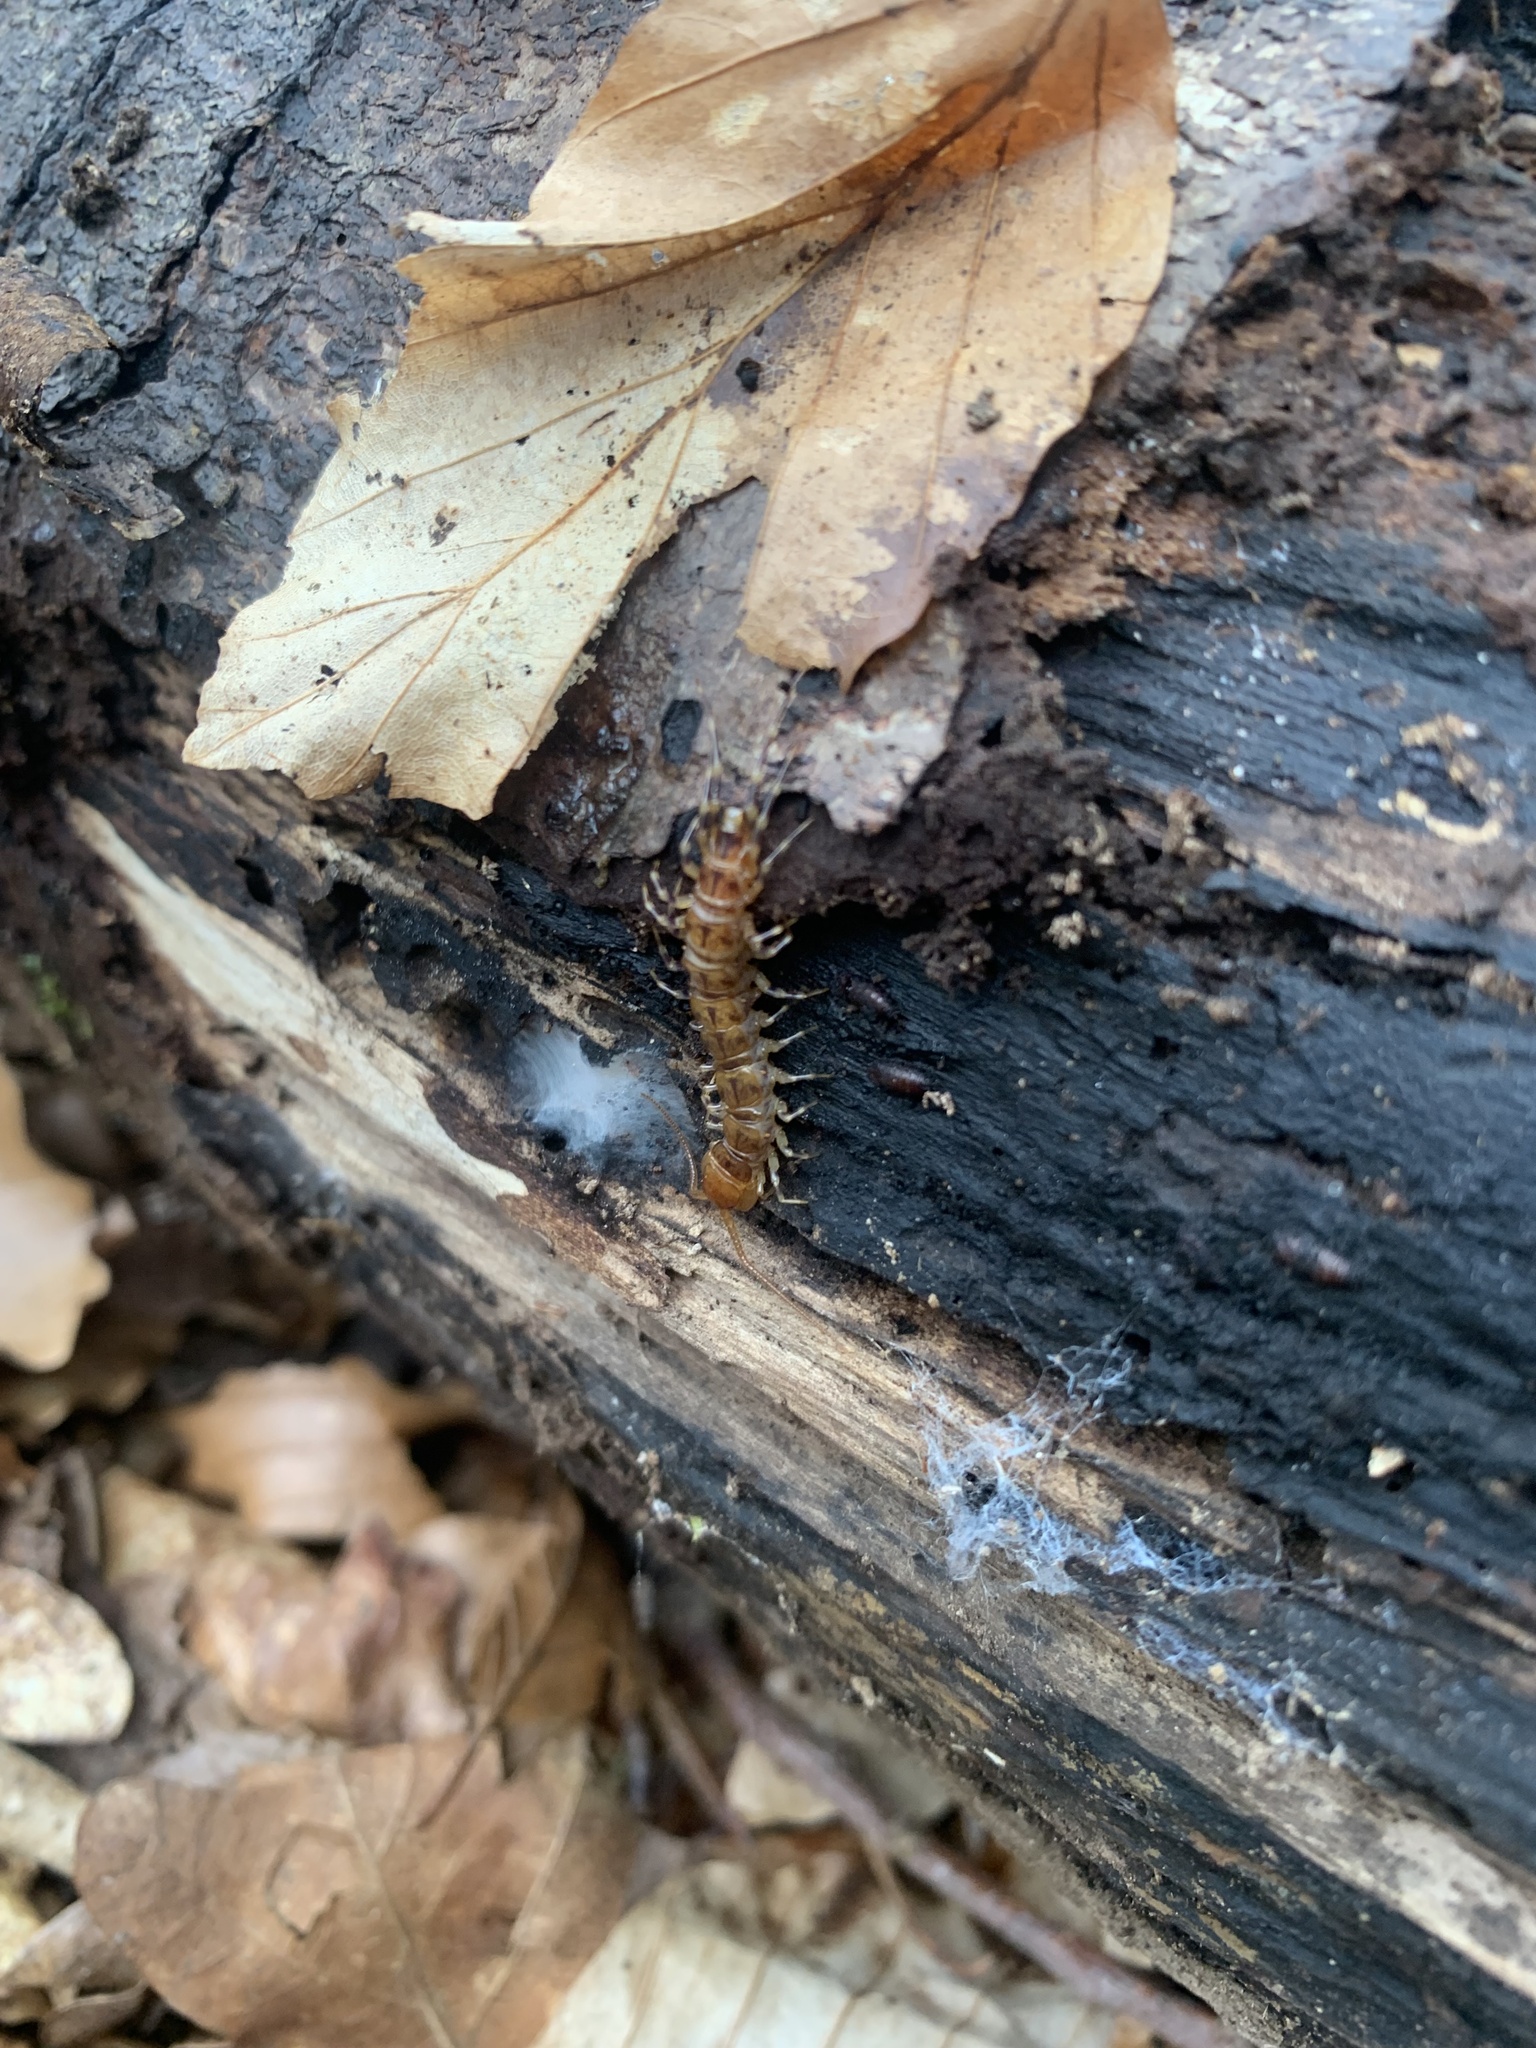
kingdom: Animalia
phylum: Arthropoda
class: Chilopoda
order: Lithobiomorpha
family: Lithobiidae
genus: Lithobius
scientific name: Lithobius variegatus
